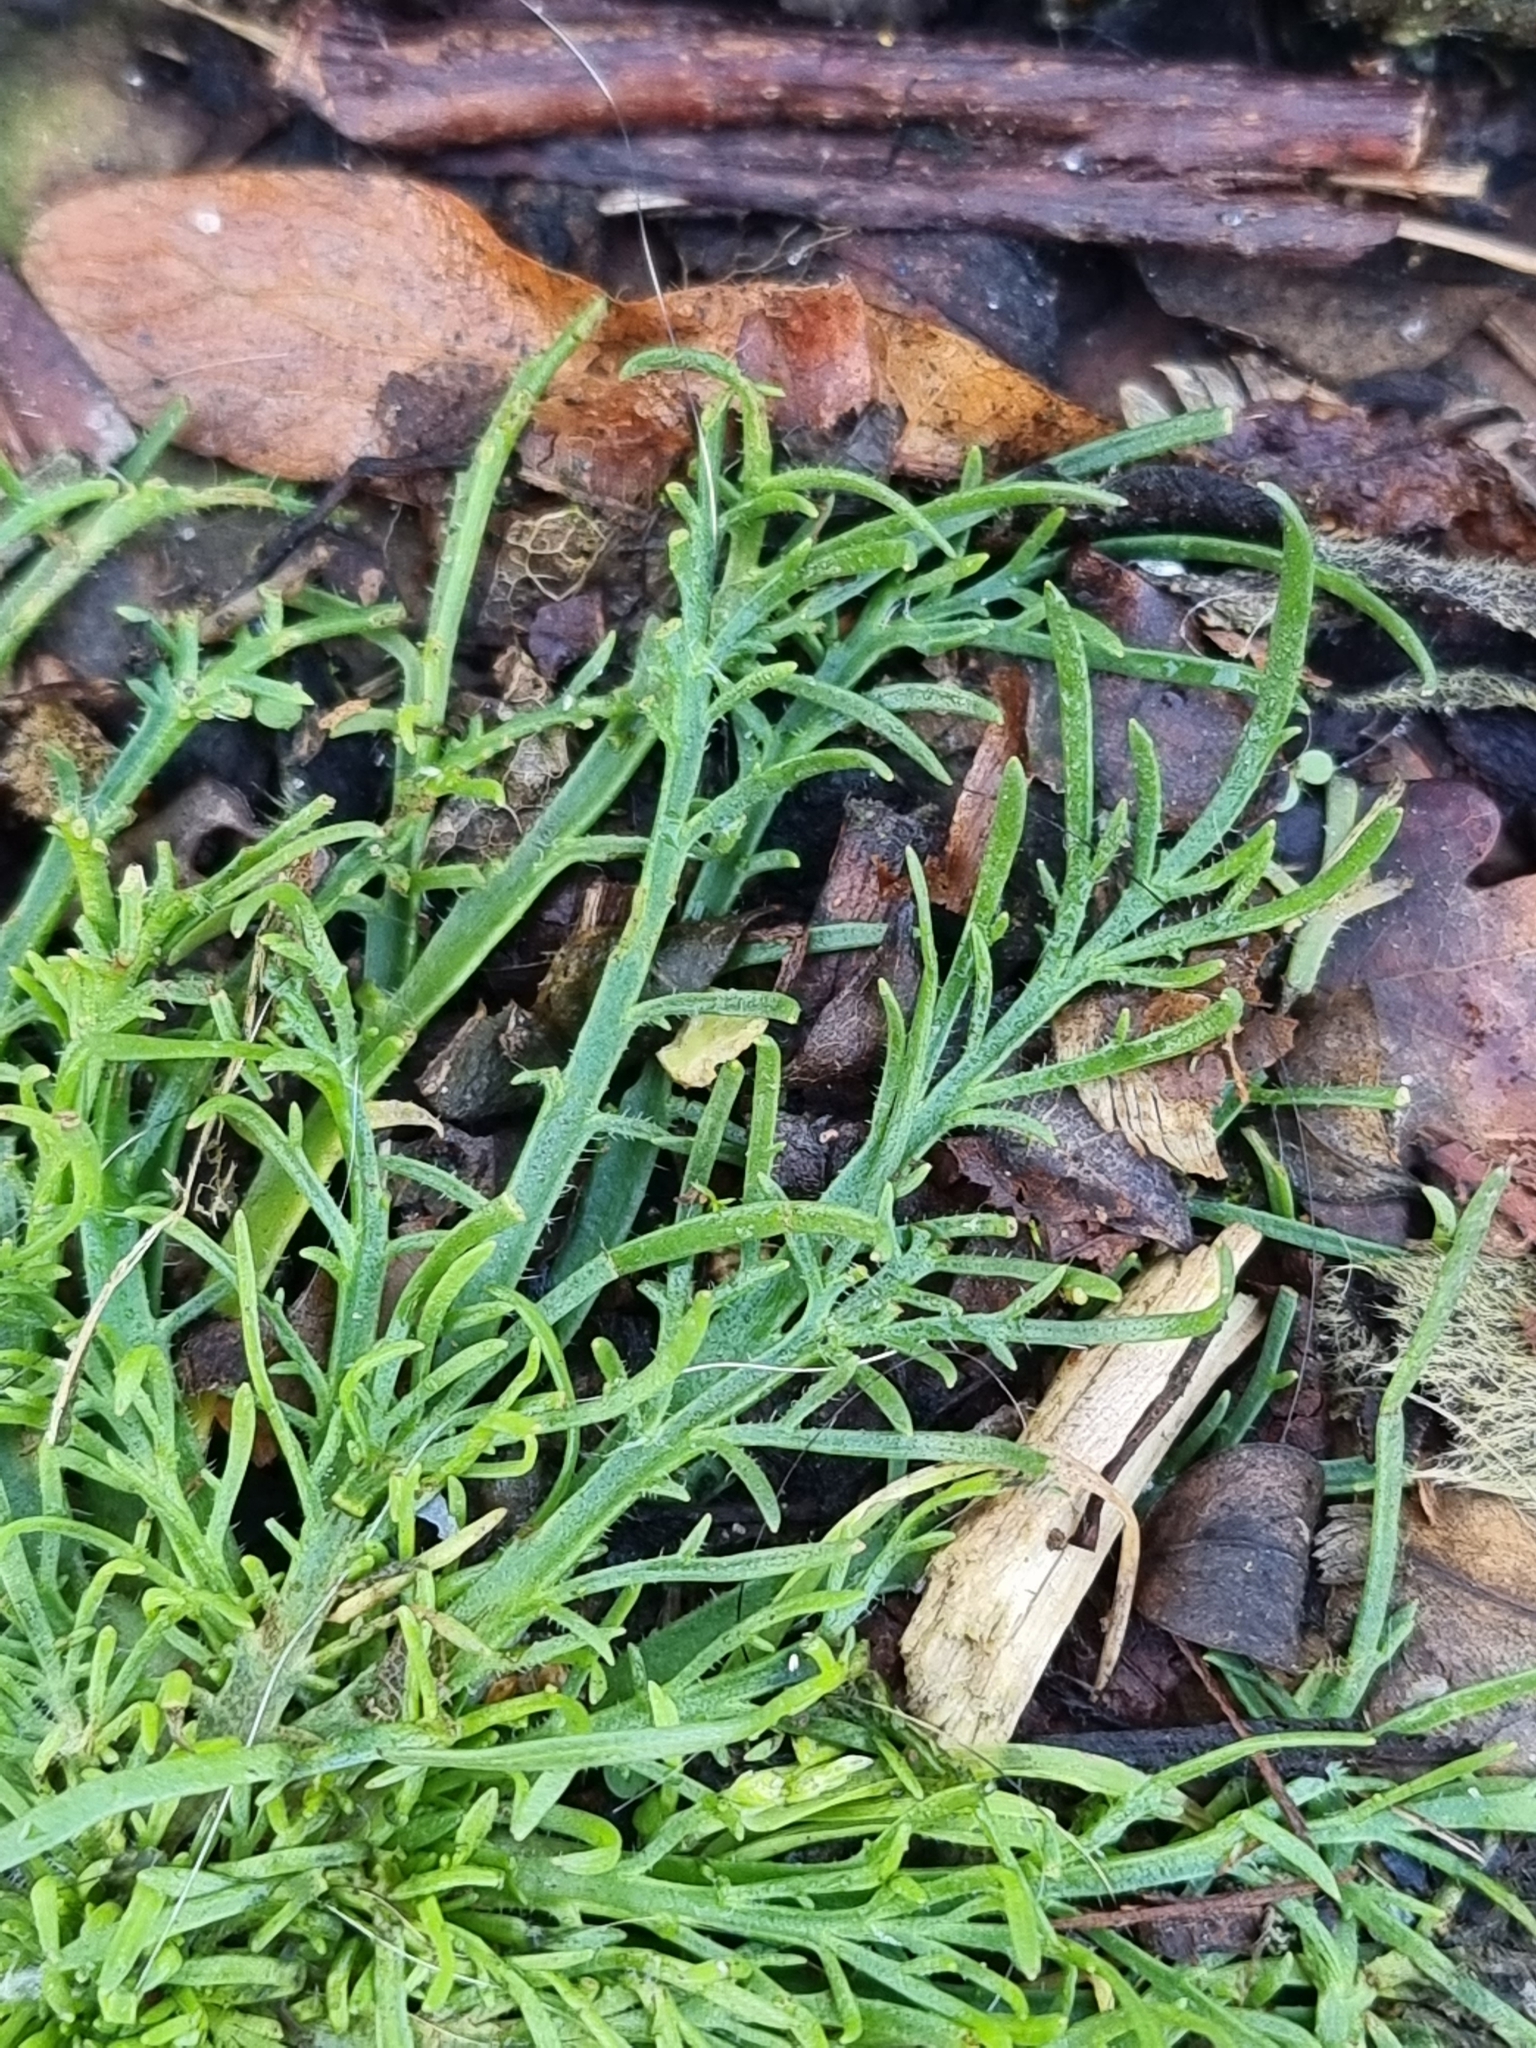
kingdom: Plantae
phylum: Tracheophyta
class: Magnoliopsida
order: Lamiales
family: Plantaginaceae
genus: Plantago
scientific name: Plantago coronopus
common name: Buck's-horn plantain
